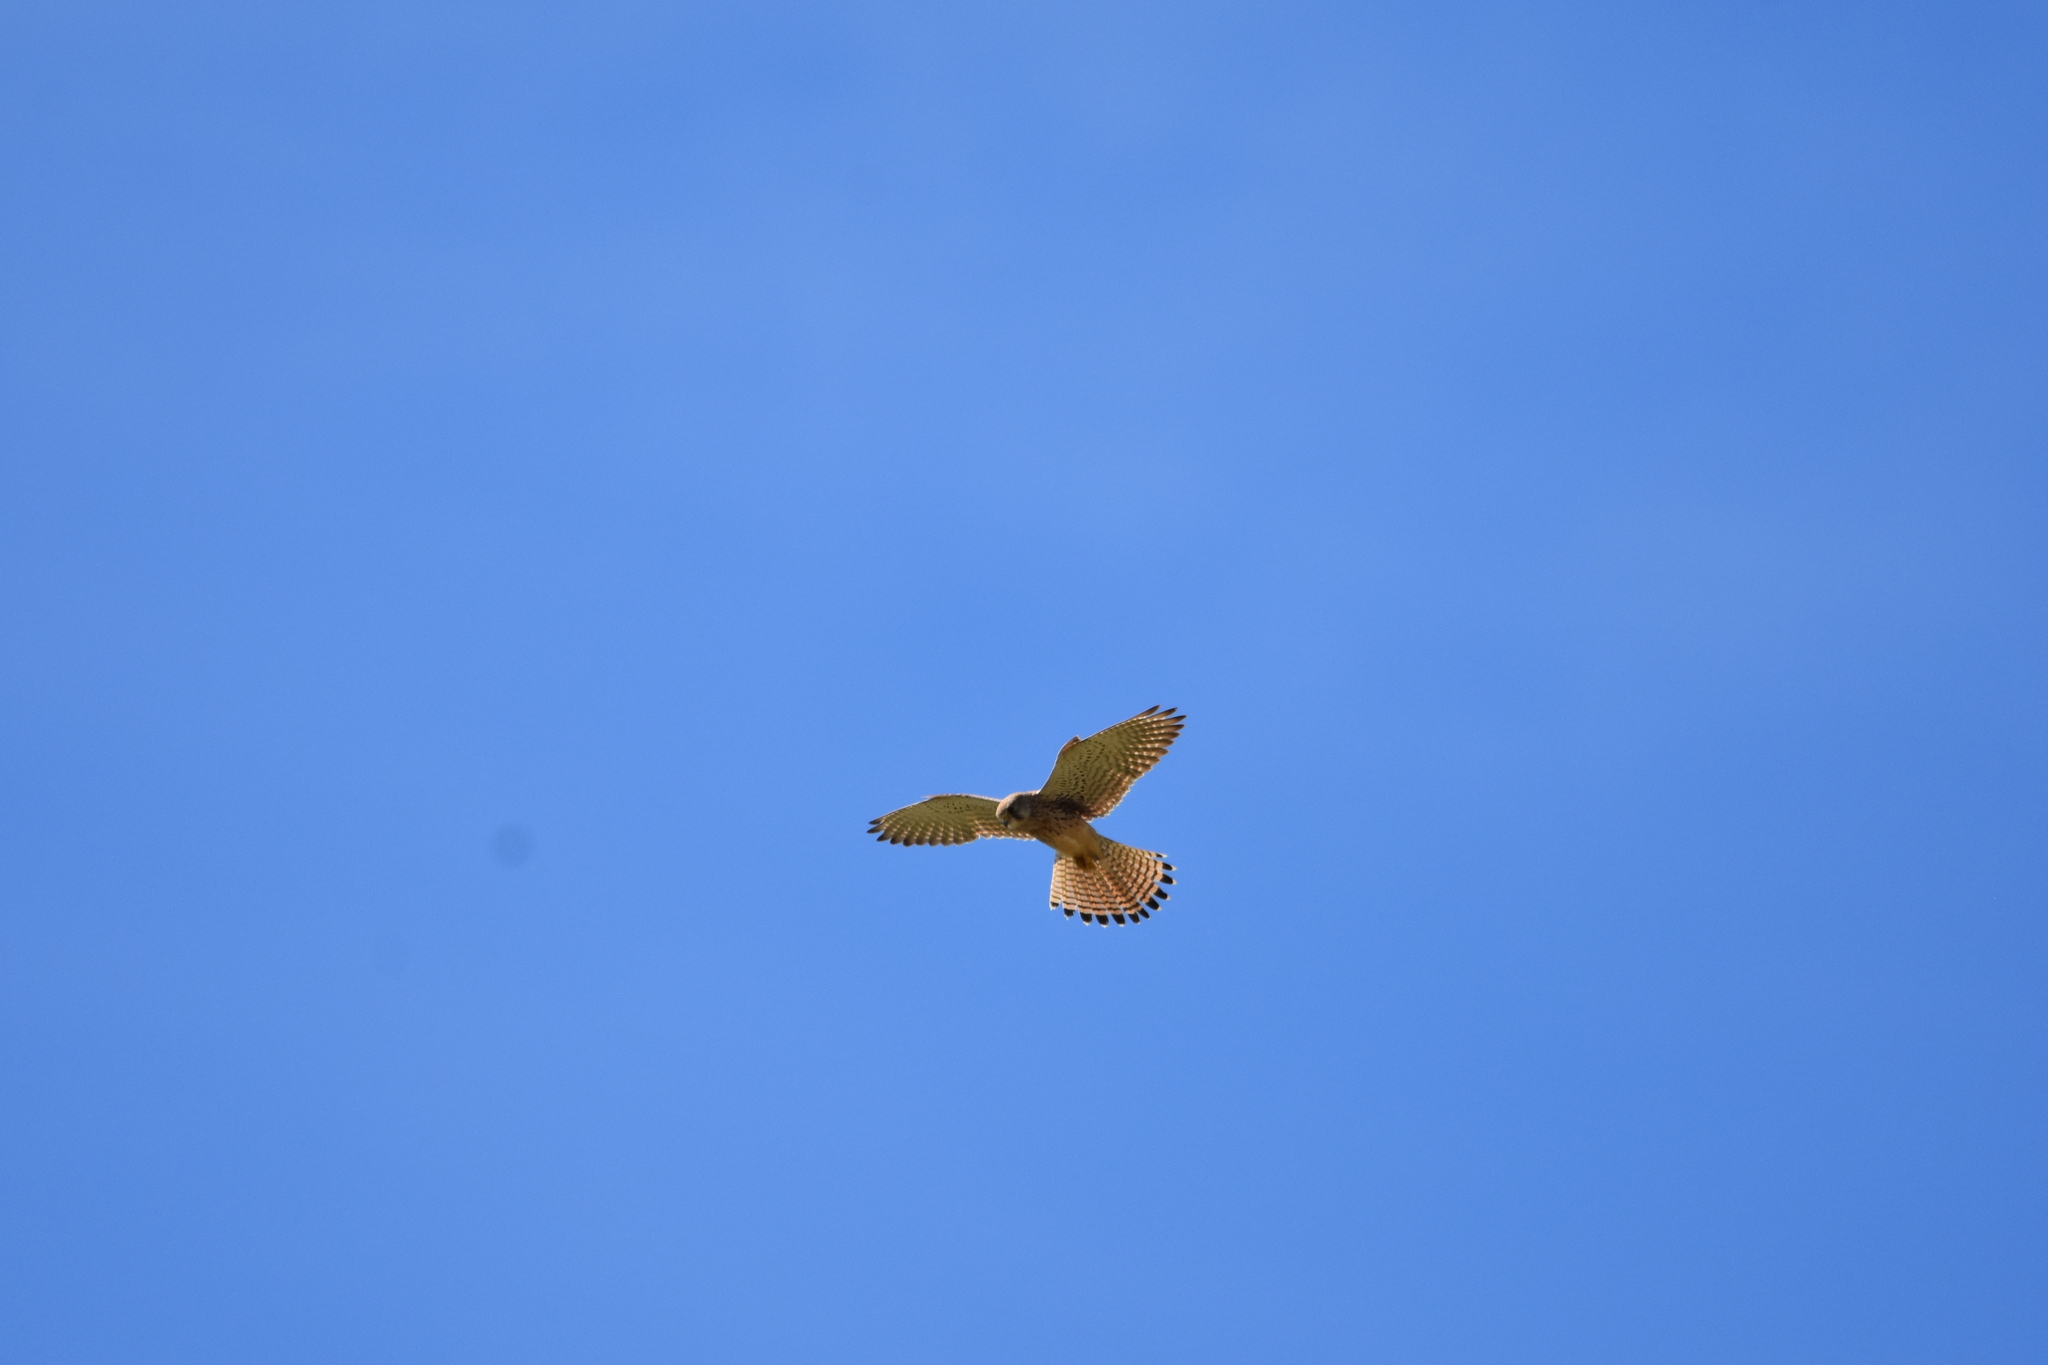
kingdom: Animalia
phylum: Chordata
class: Aves
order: Falconiformes
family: Falconidae
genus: Falco
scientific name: Falco tinnunculus
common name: Common kestrel
